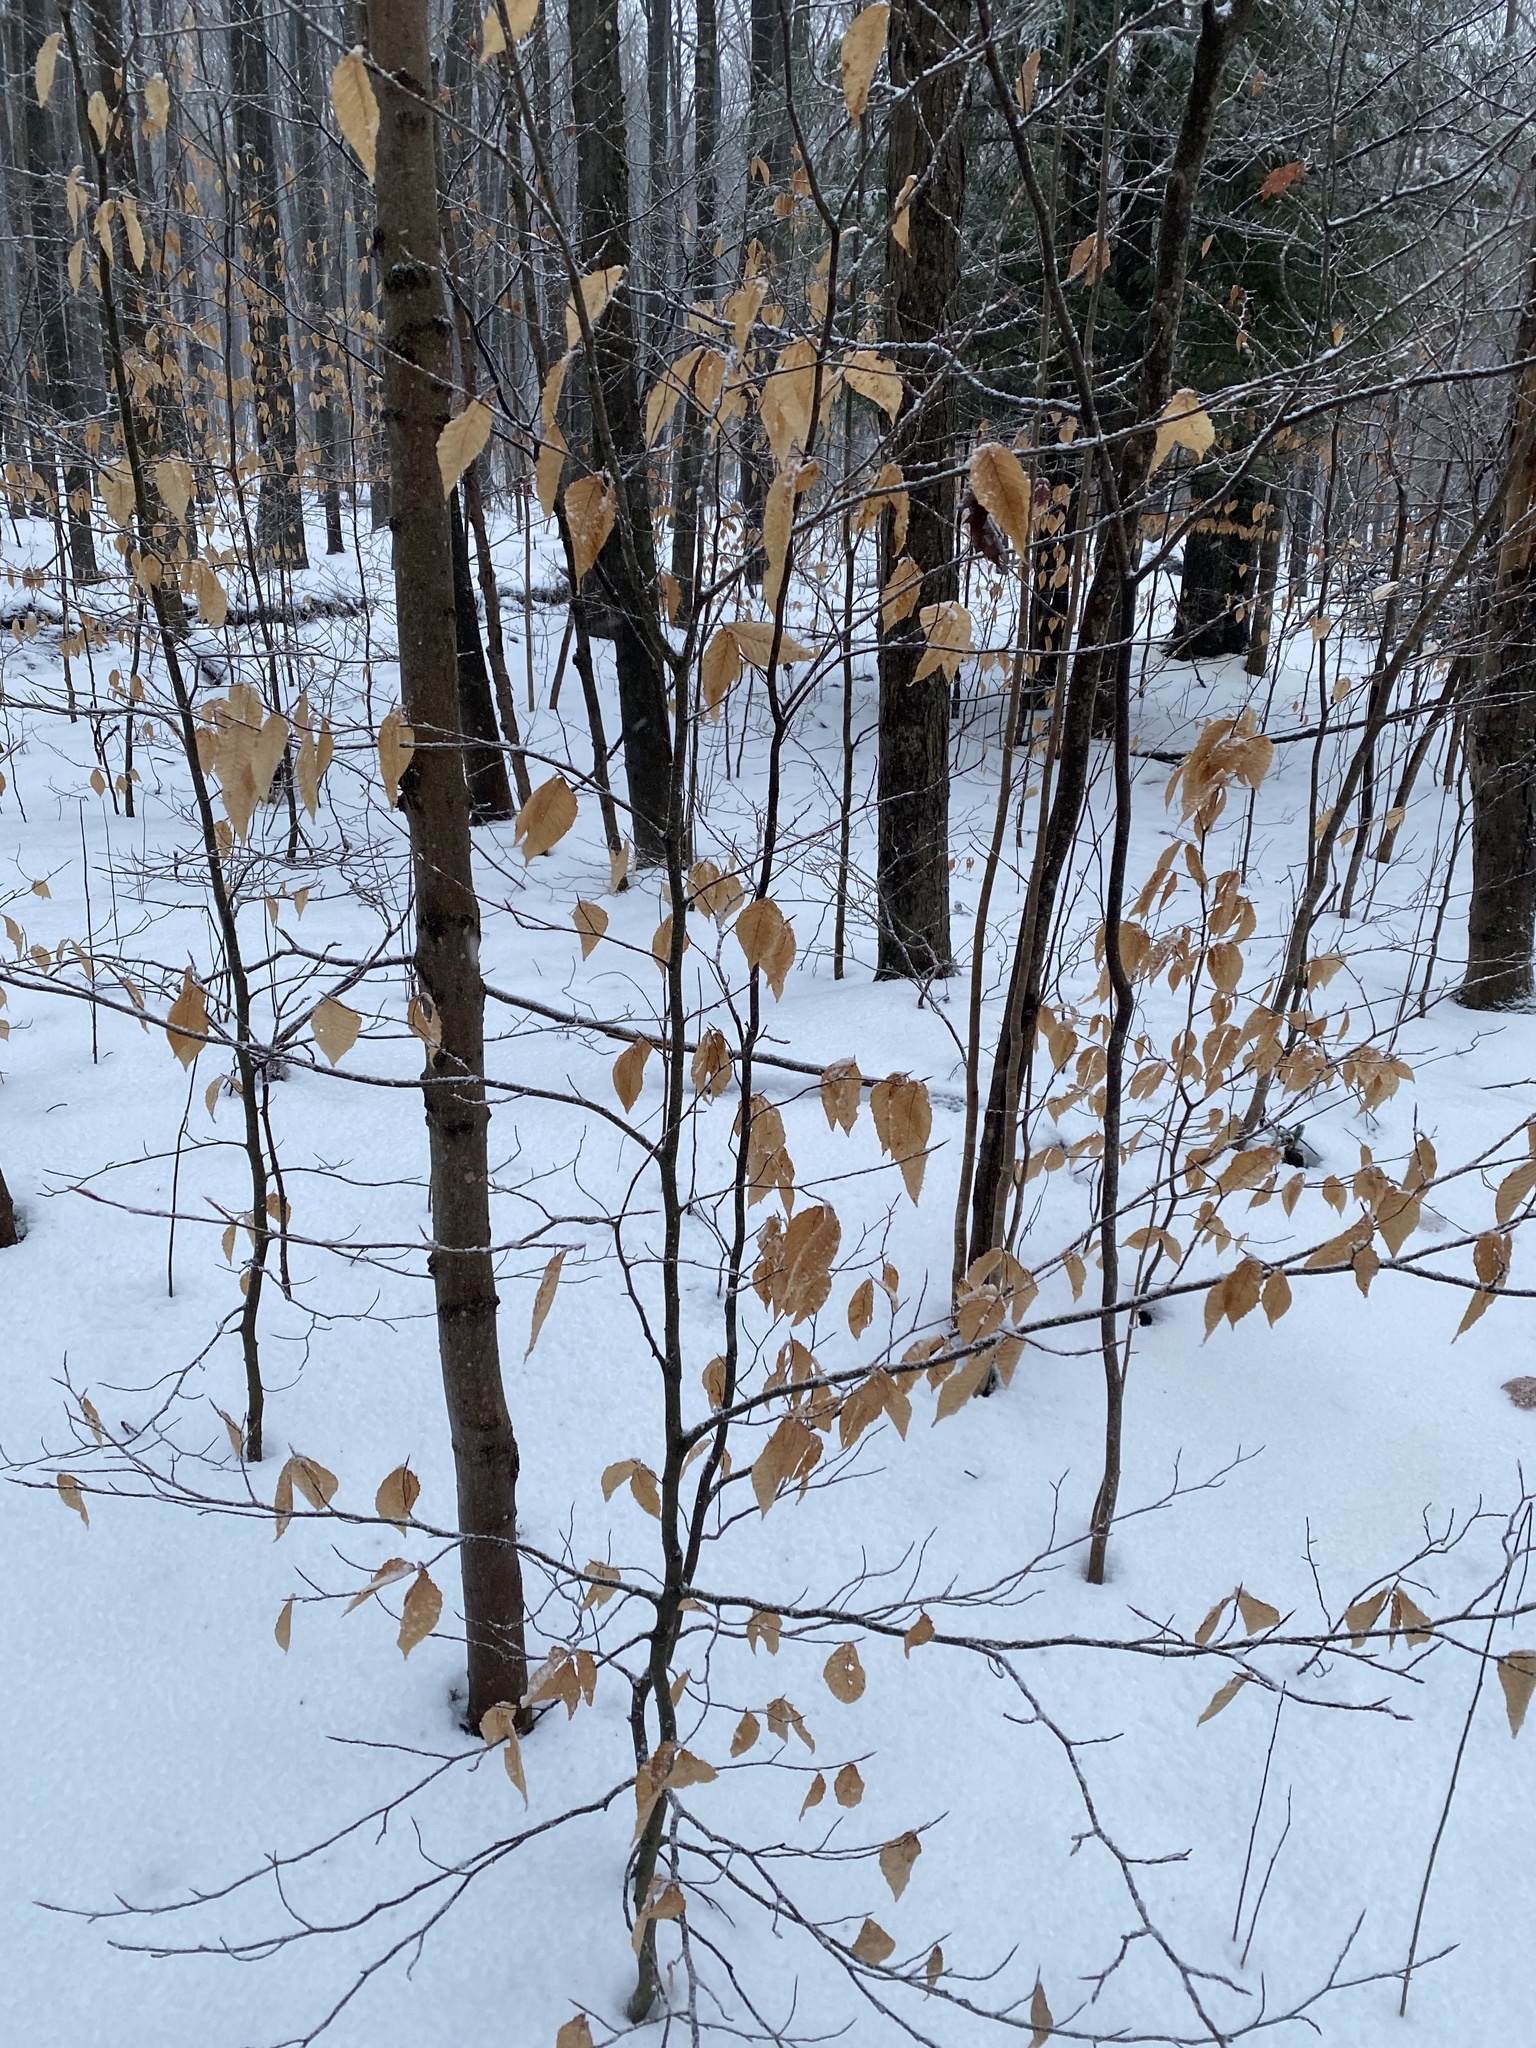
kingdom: Plantae
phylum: Tracheophyta
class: Magnoliopsida
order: Fagales
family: Fagaceae
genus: Fagus
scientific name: Fagus grandifolia
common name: American beech
